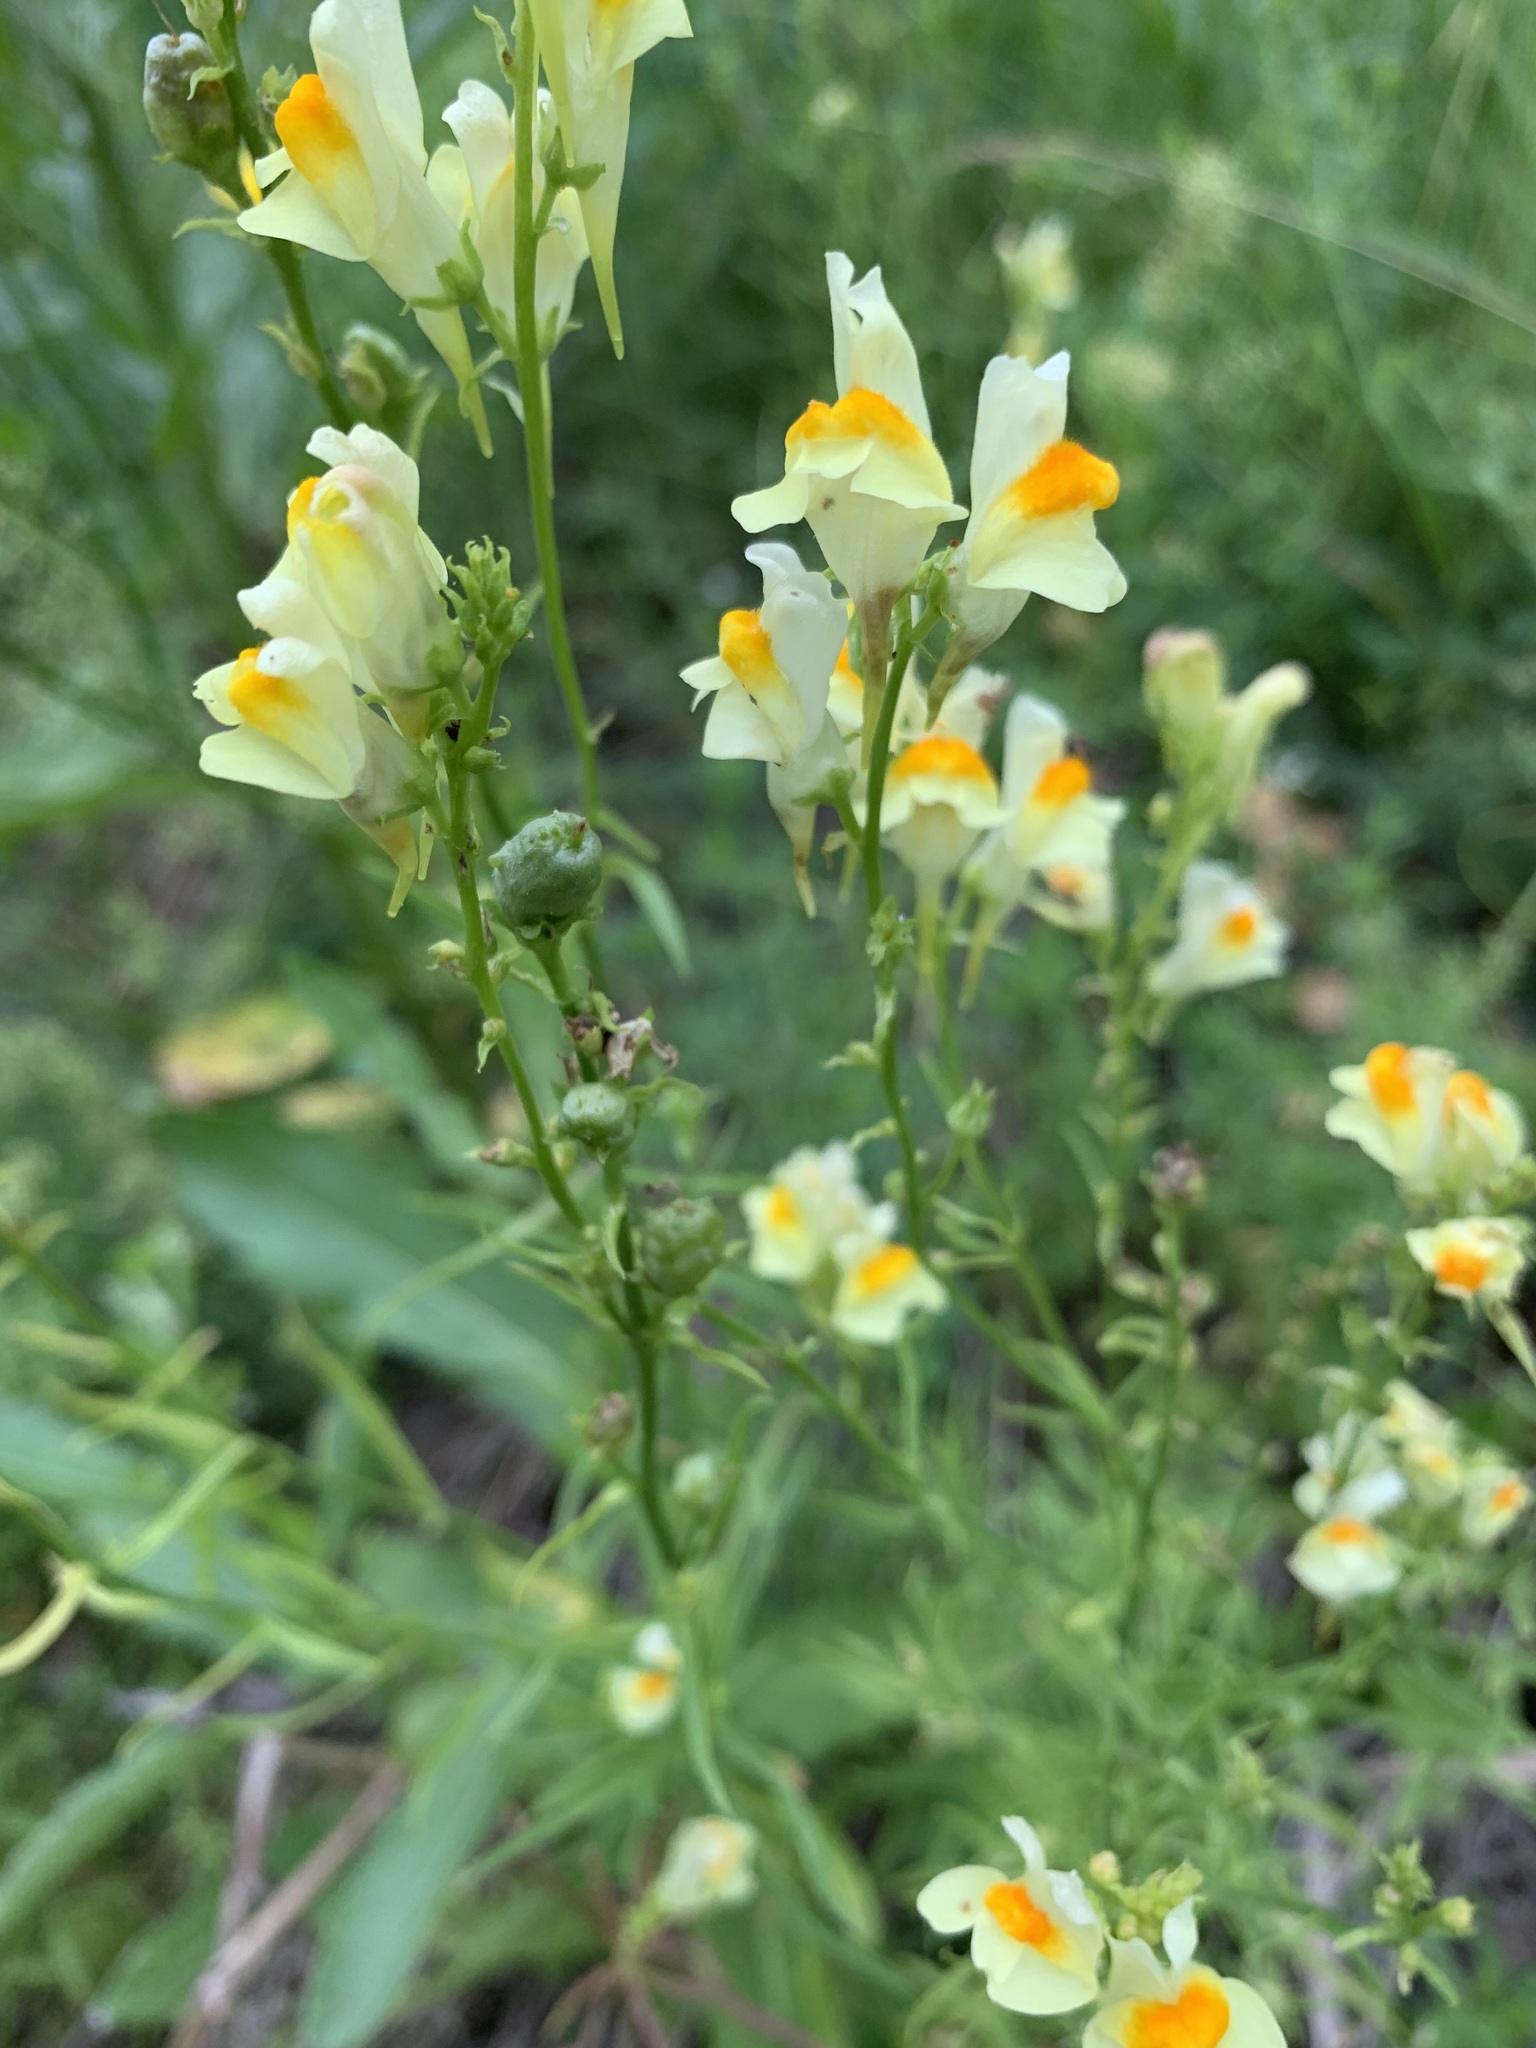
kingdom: Plantae
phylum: Tracheophyta
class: Magnoliopsida
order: Lamiales
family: Plantaginaceae
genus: Linaria
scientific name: Linaria vulgaris
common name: Butter and eggs
